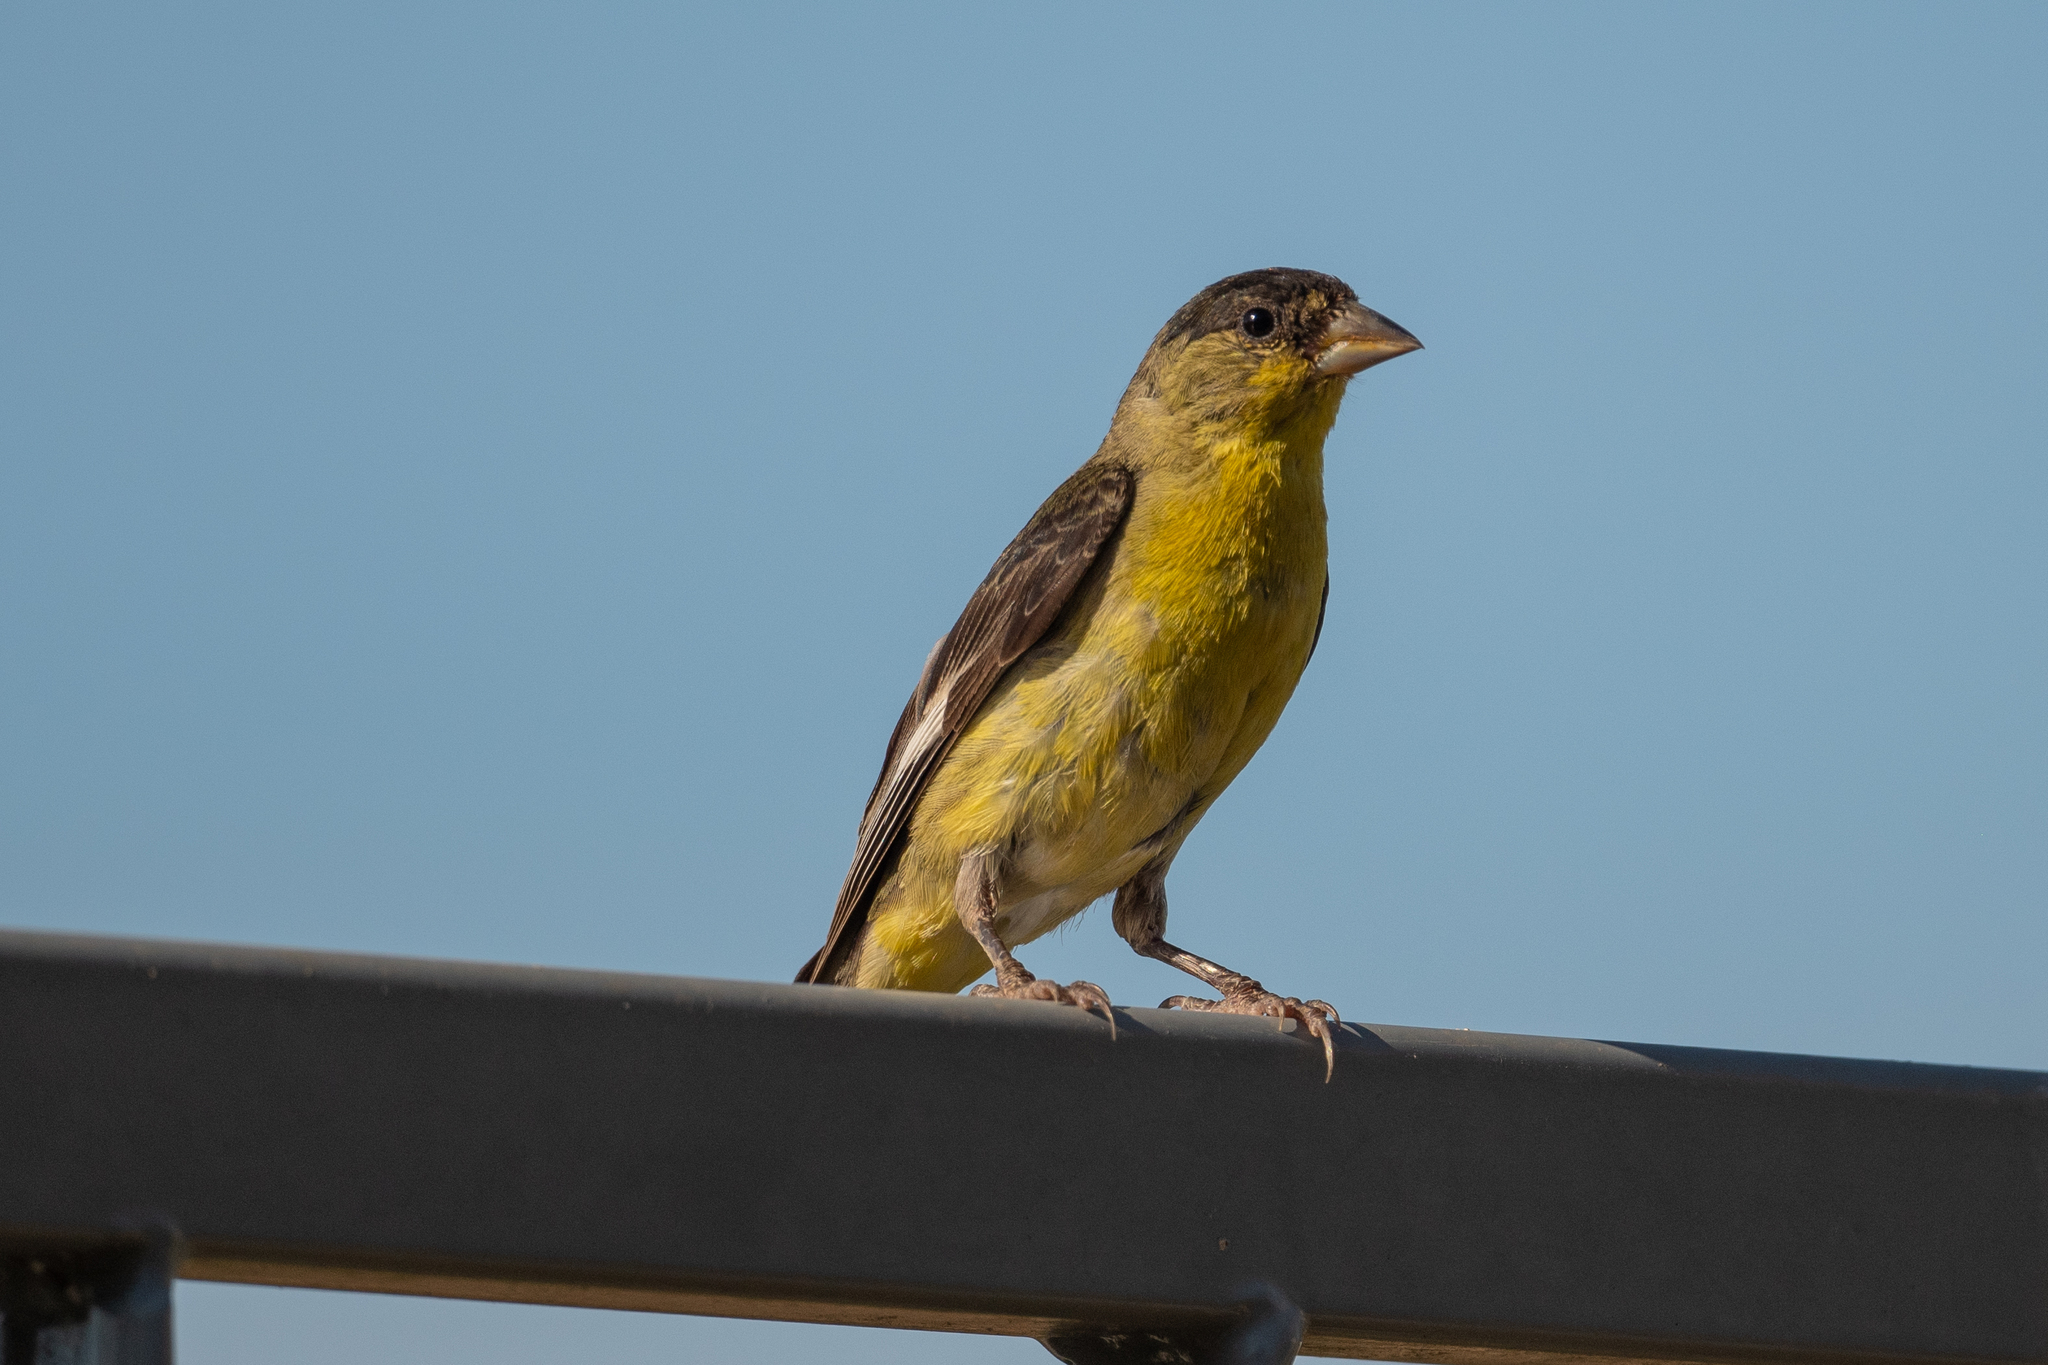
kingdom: Animalia
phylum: Chordata
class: Aves
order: Passeriformes
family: Fringillidae
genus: Spinus
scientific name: Spinus psaltria
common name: Lesser goldfinch
